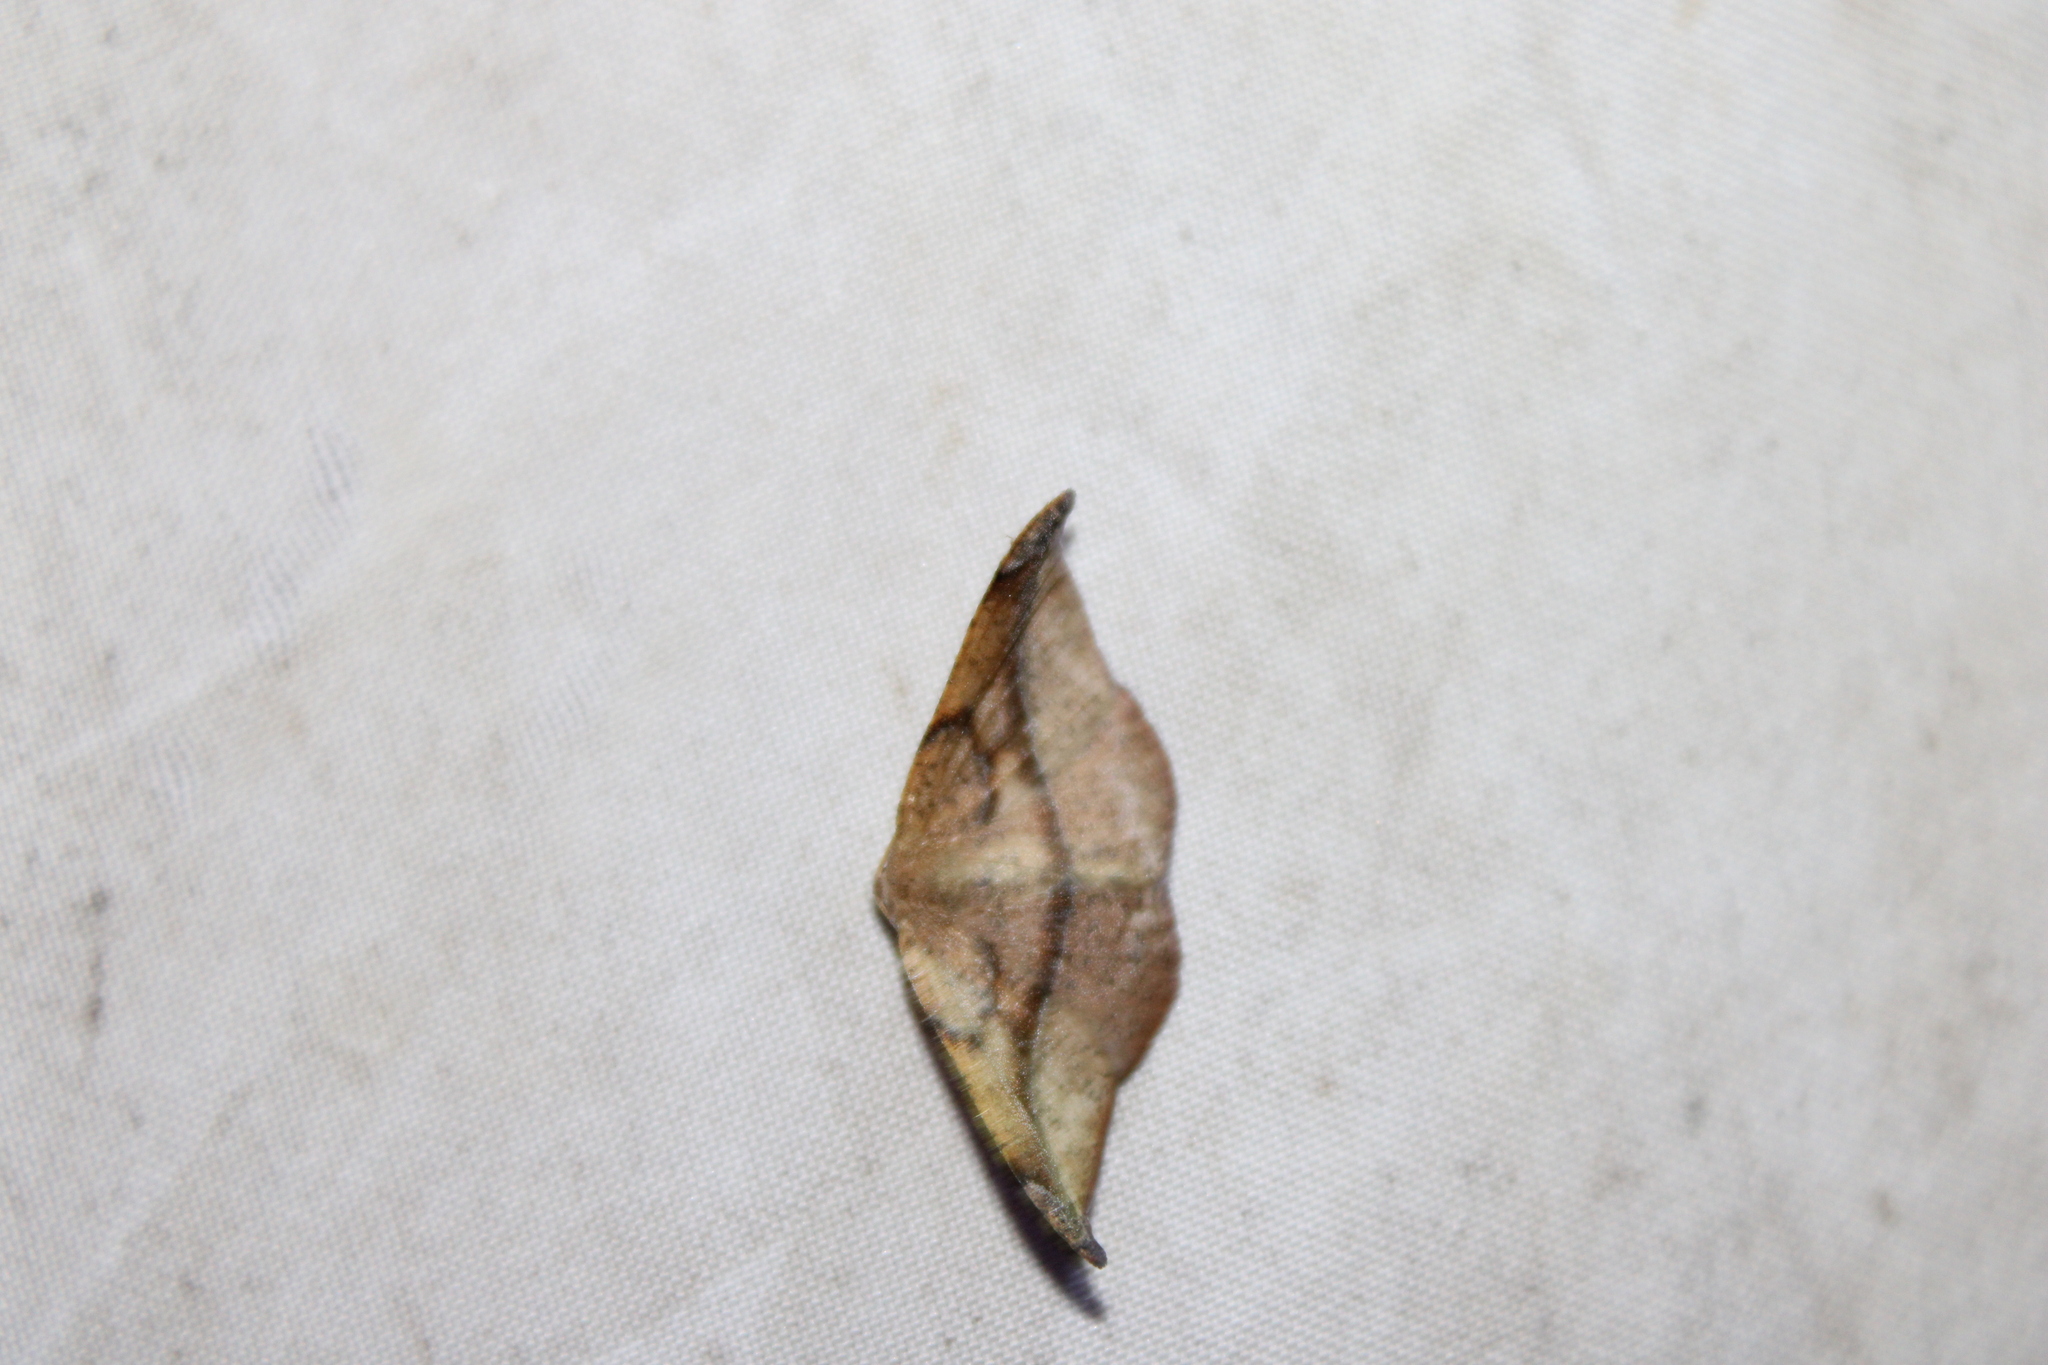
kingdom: Animalia
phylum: Arthropoda
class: Insecta
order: Lepidoptera
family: Geometridae
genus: Patalene
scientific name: Patalene olyzonaria
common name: Juniper geometer moth
